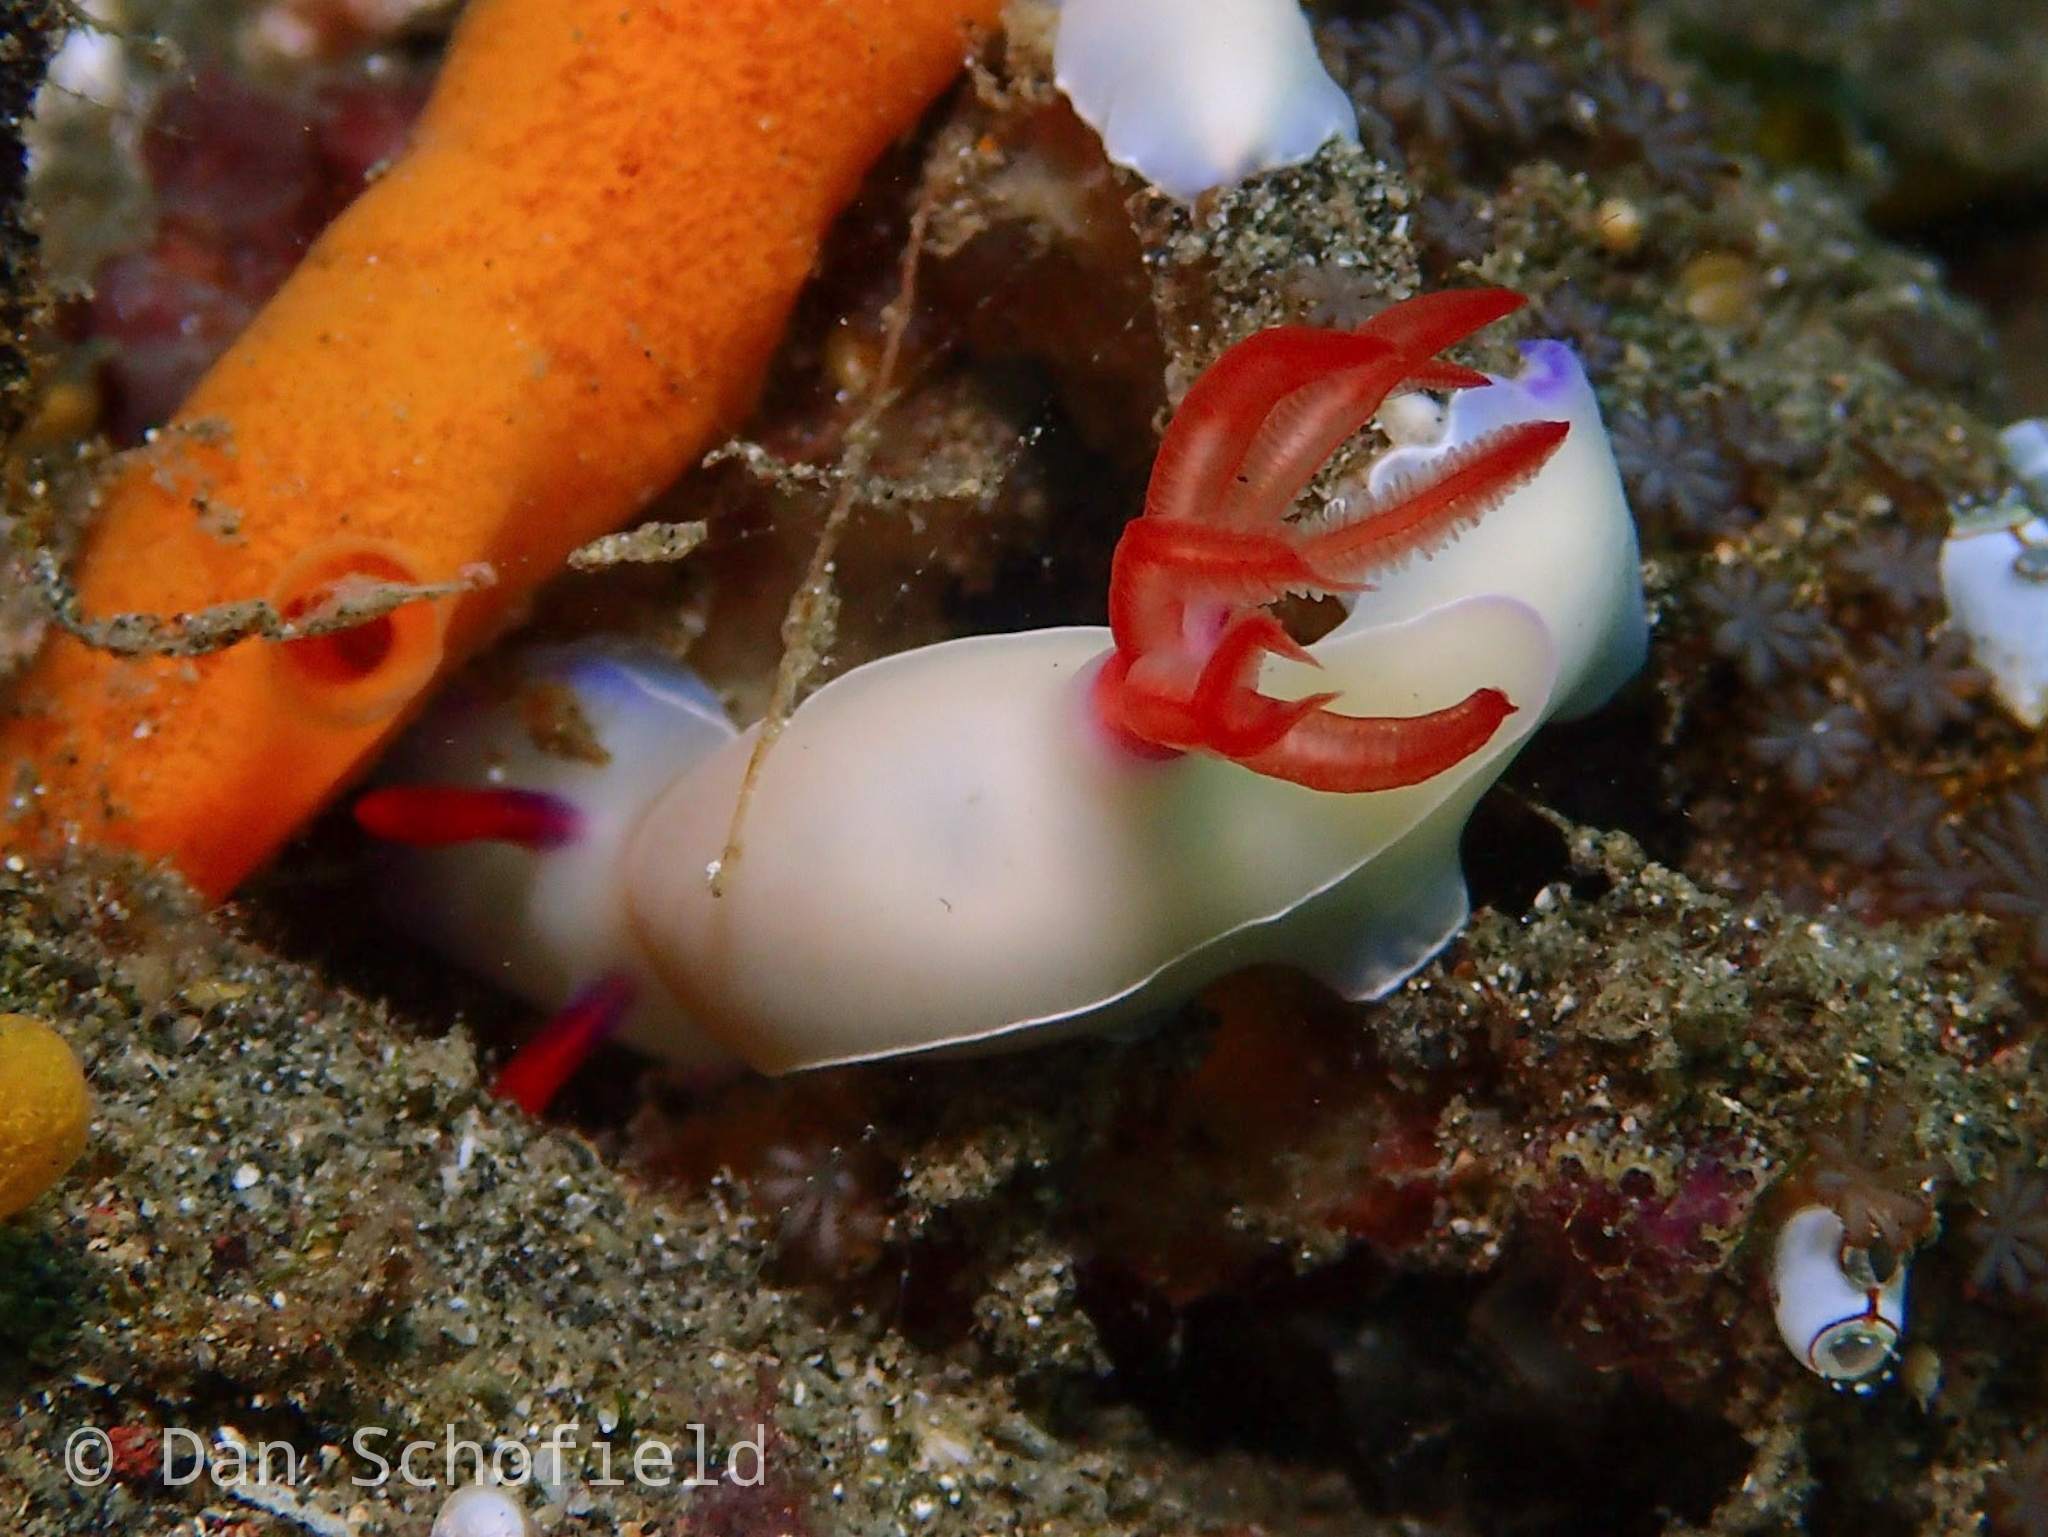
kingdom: Animalia
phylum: Mollusca
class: Gastropoda
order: Nudibranchia
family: Chromodorididae
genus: Hypselodoris
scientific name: Hypselodoris bullockii
